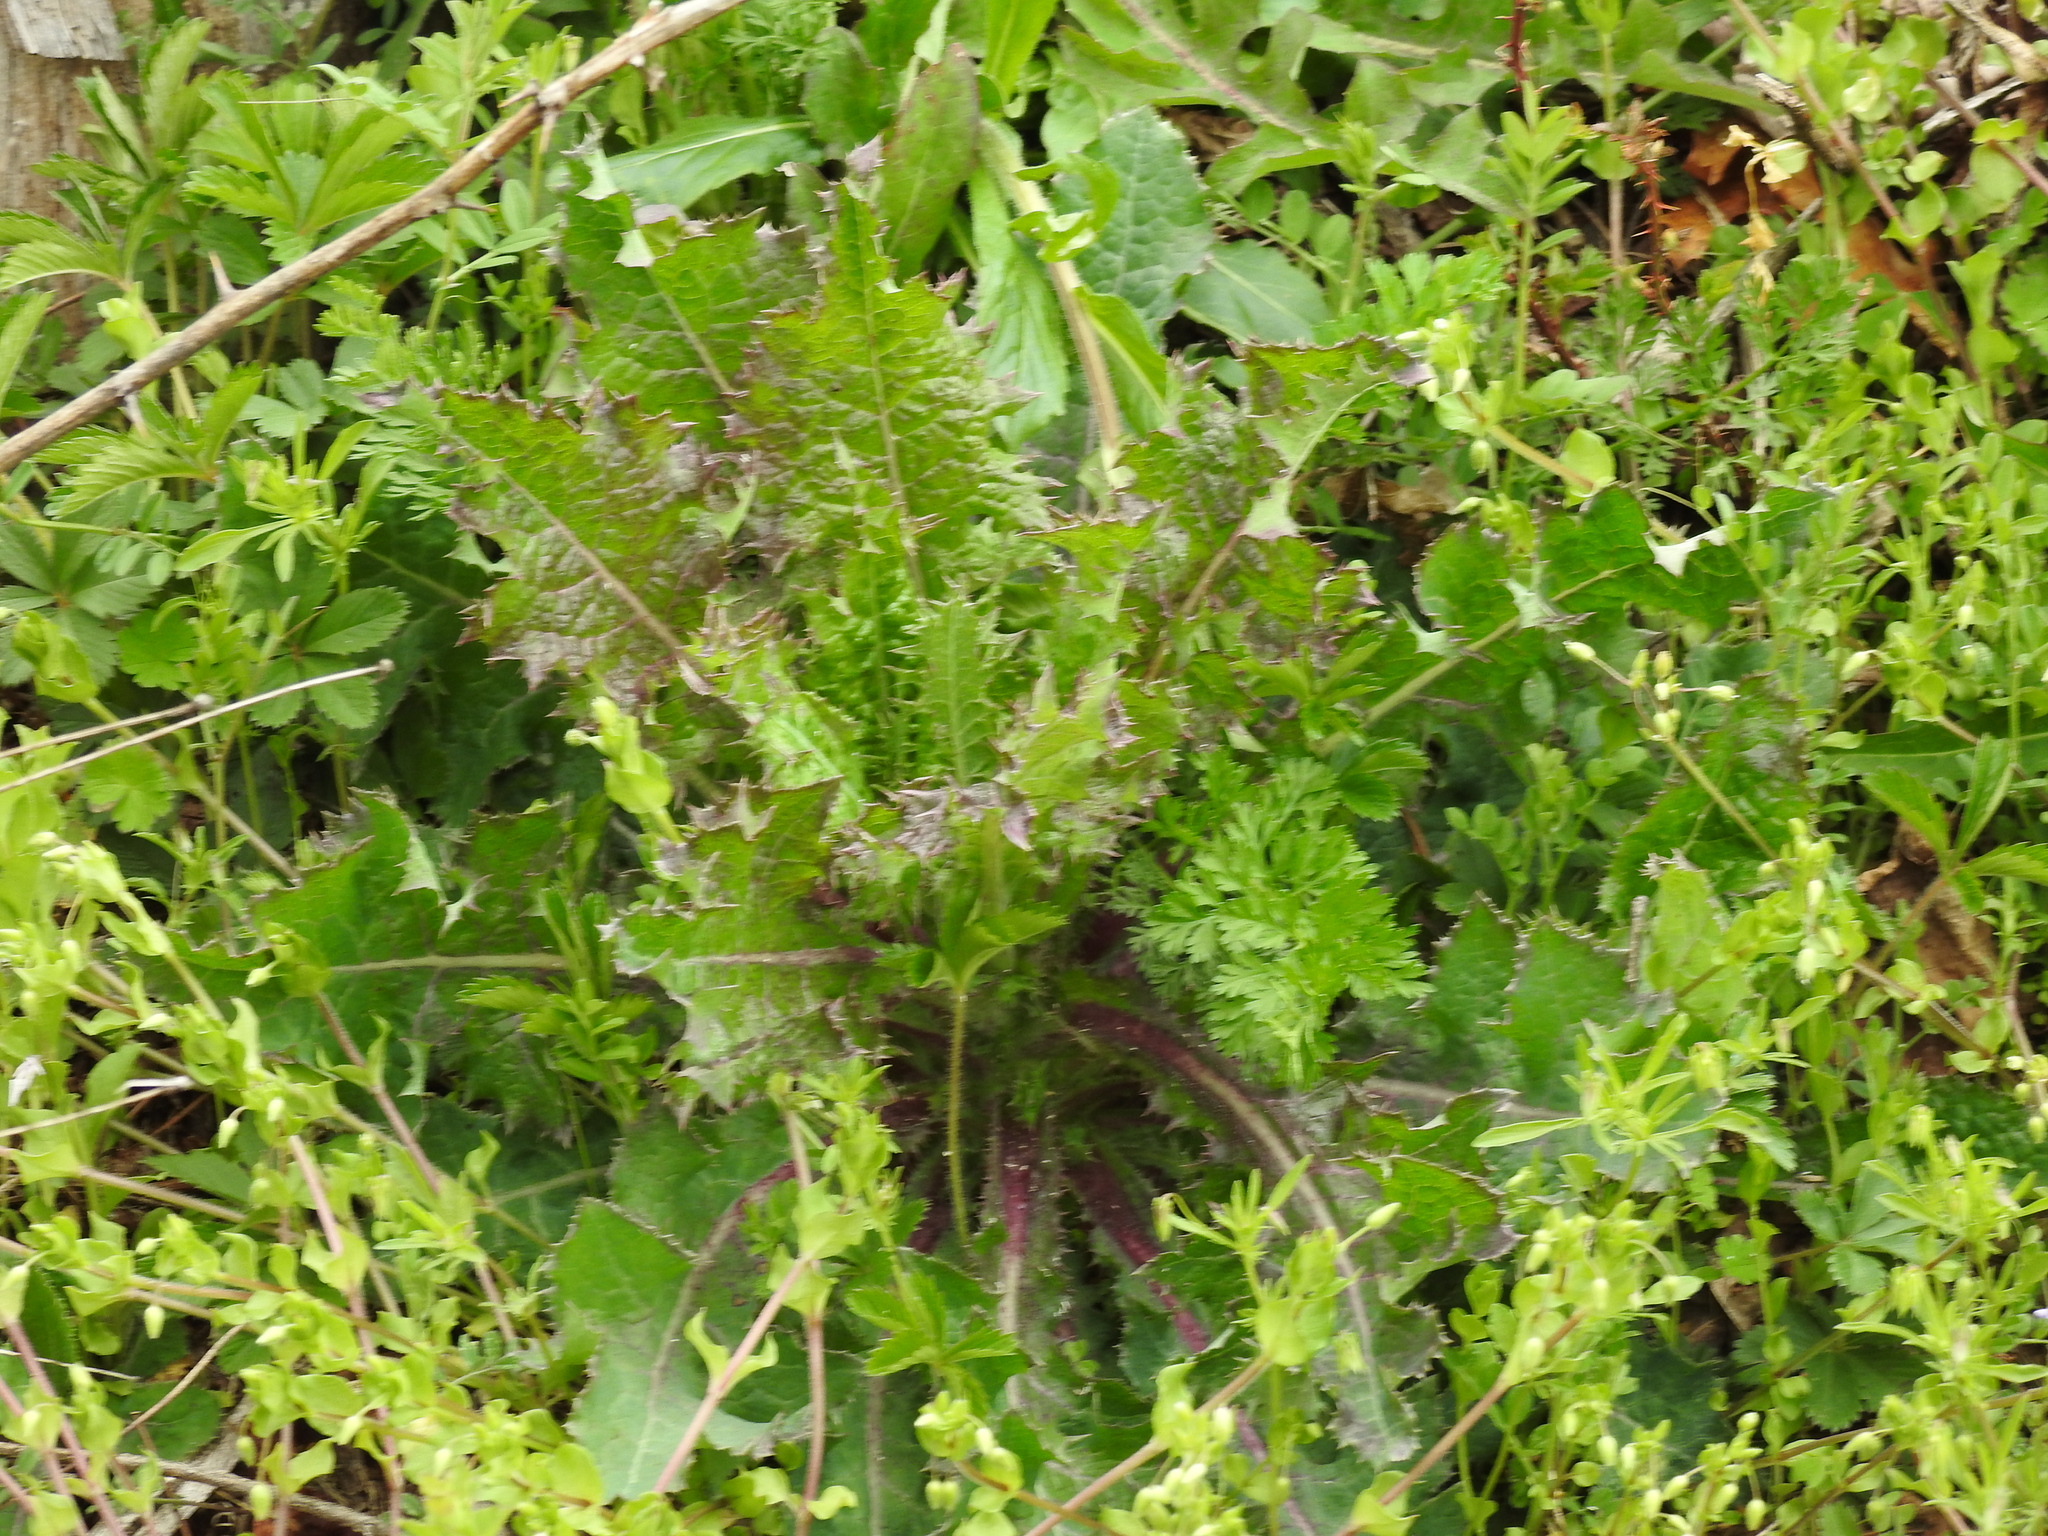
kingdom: Plantae
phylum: Tracheophyta
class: Magnoliopsida
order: Asterales
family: Asteraceae
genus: Sonchus
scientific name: Sonchus asper
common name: Prickly sow-thistle
